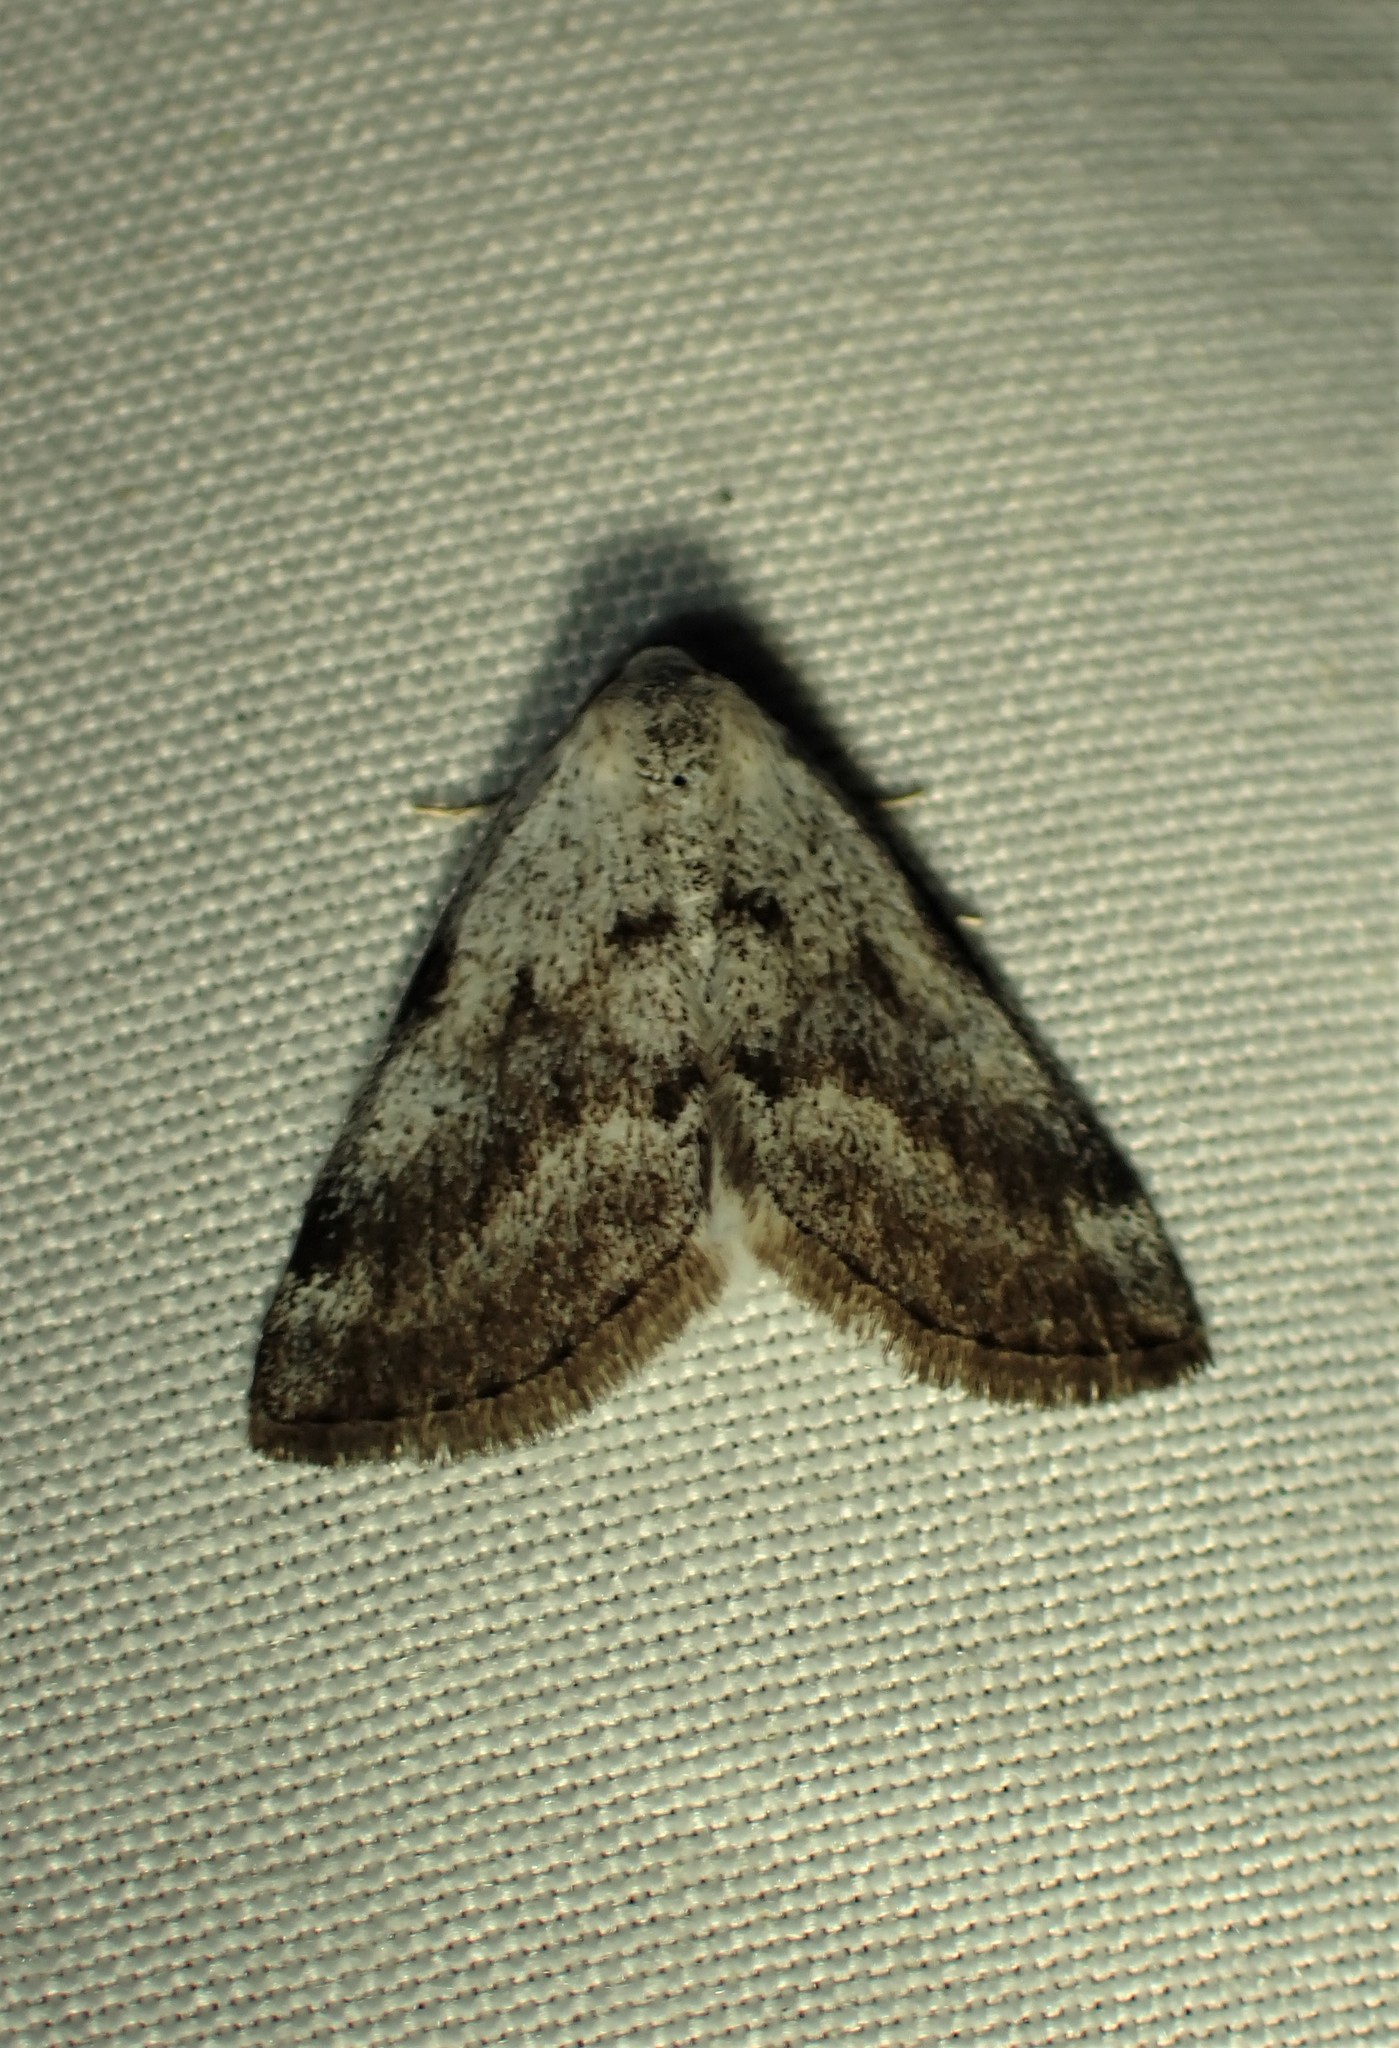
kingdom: Animalia
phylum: Arthropoda
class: Insecta
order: Lepidoptera
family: Geometridae
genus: Lomographa
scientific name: Lomographa semiclarata
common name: Bluish spring moth
